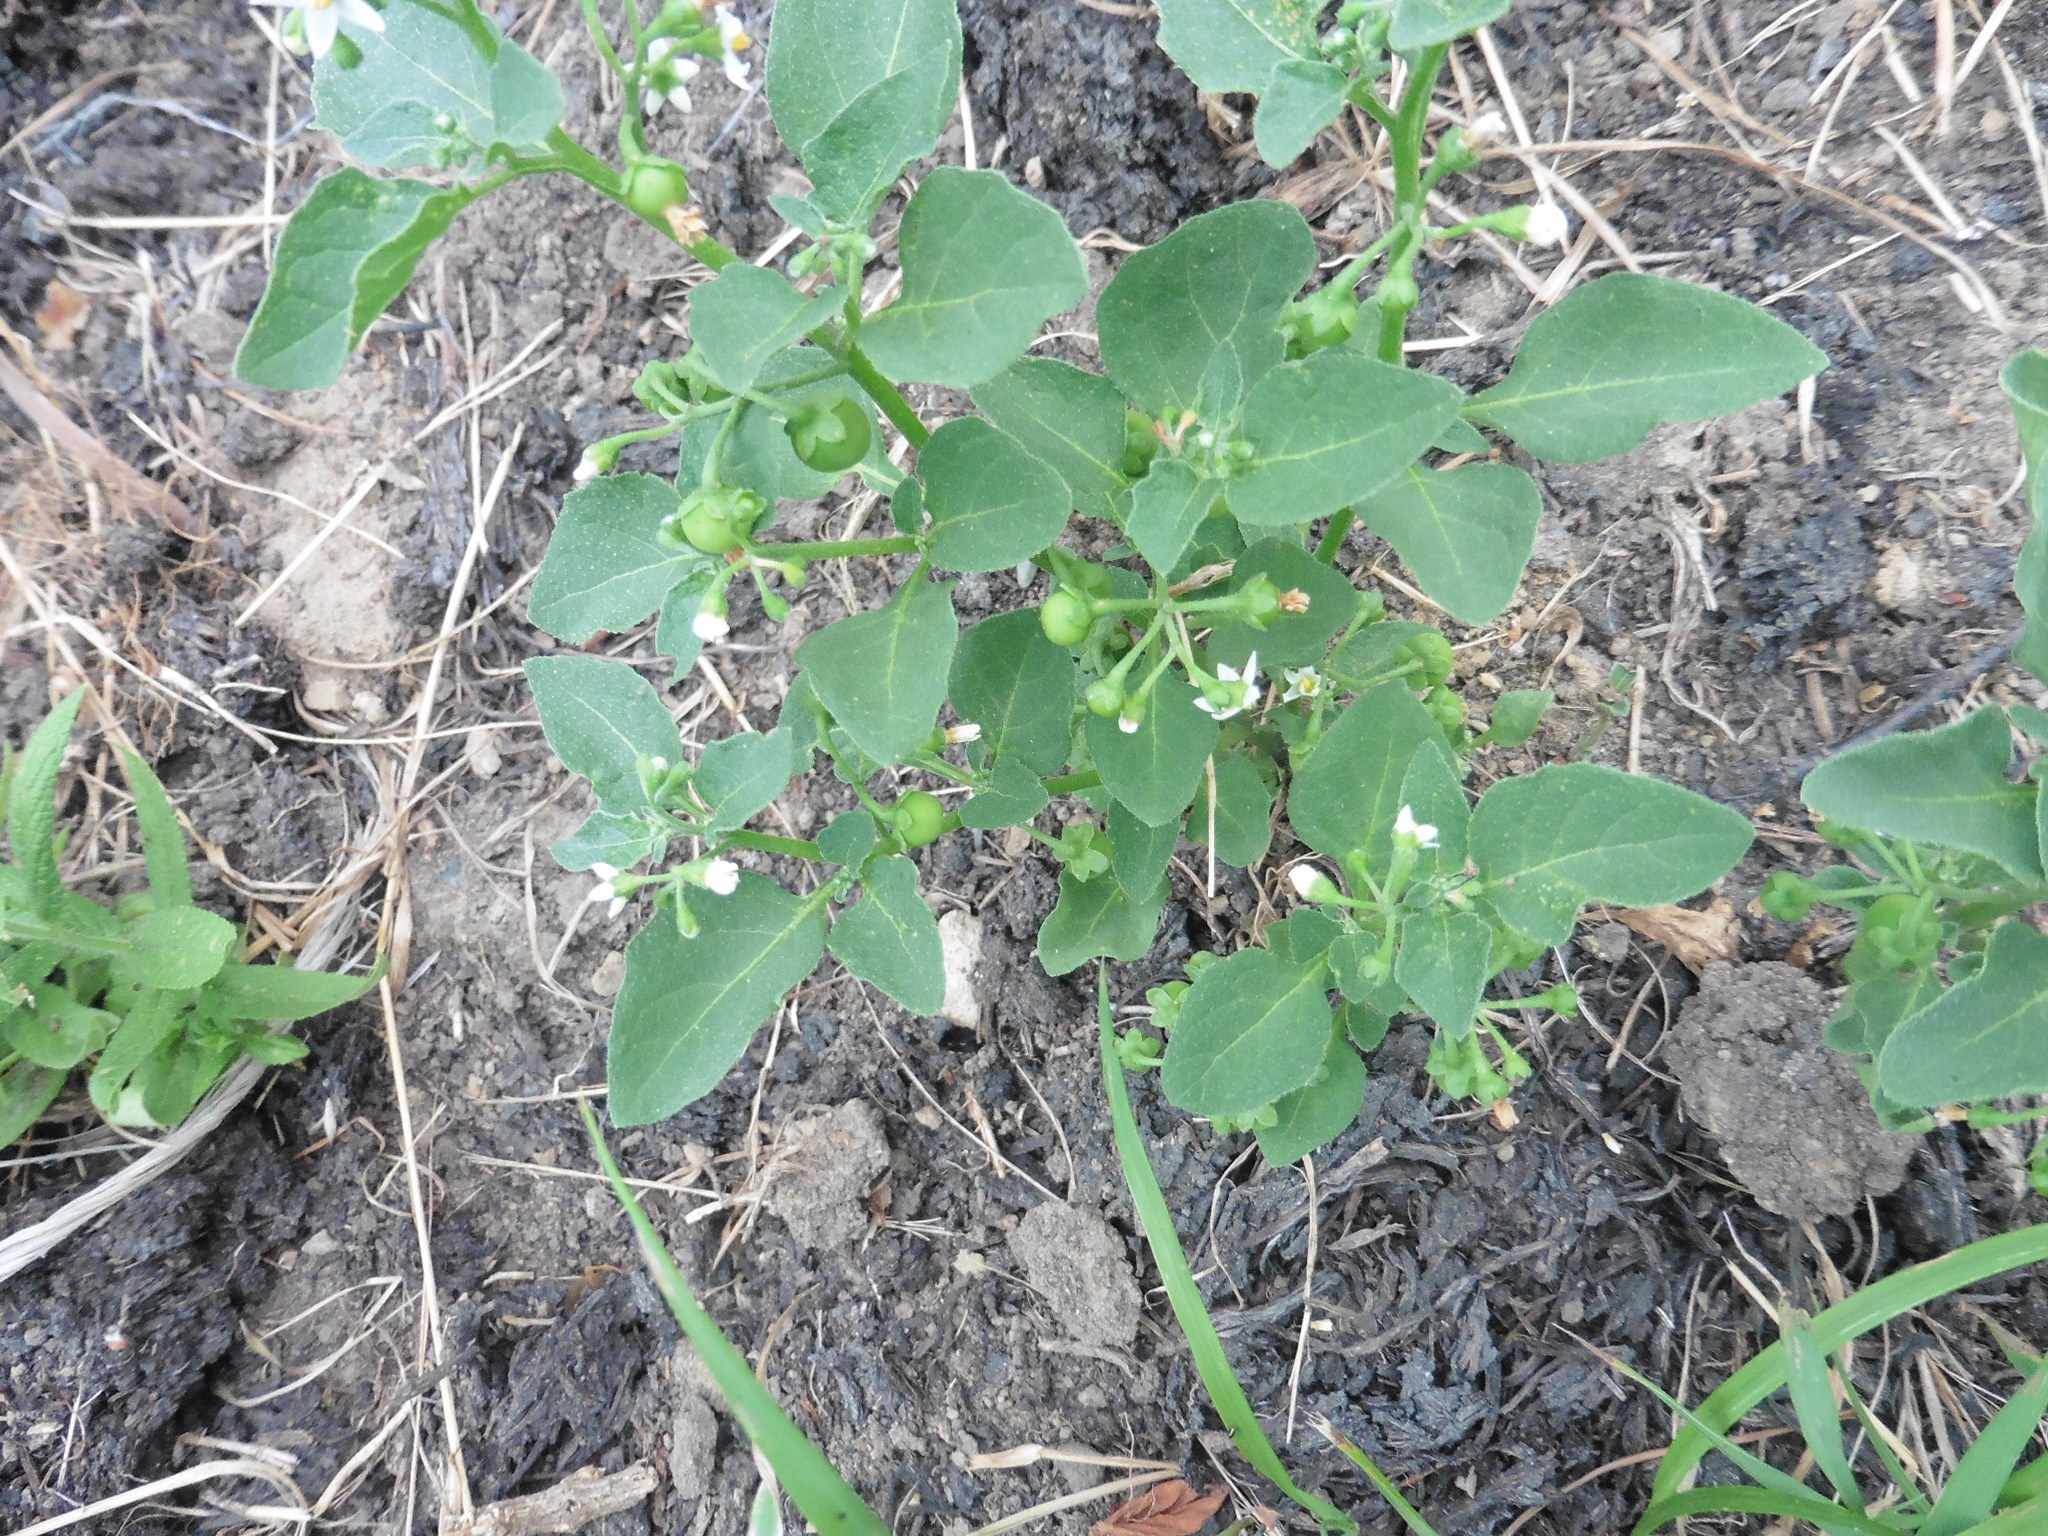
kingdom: Plantae
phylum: Tracheophyta
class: Magnoliopsida
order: Solanales
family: Solanaceae
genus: Solanum
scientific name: Solanum nigrum
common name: Black nightshade
